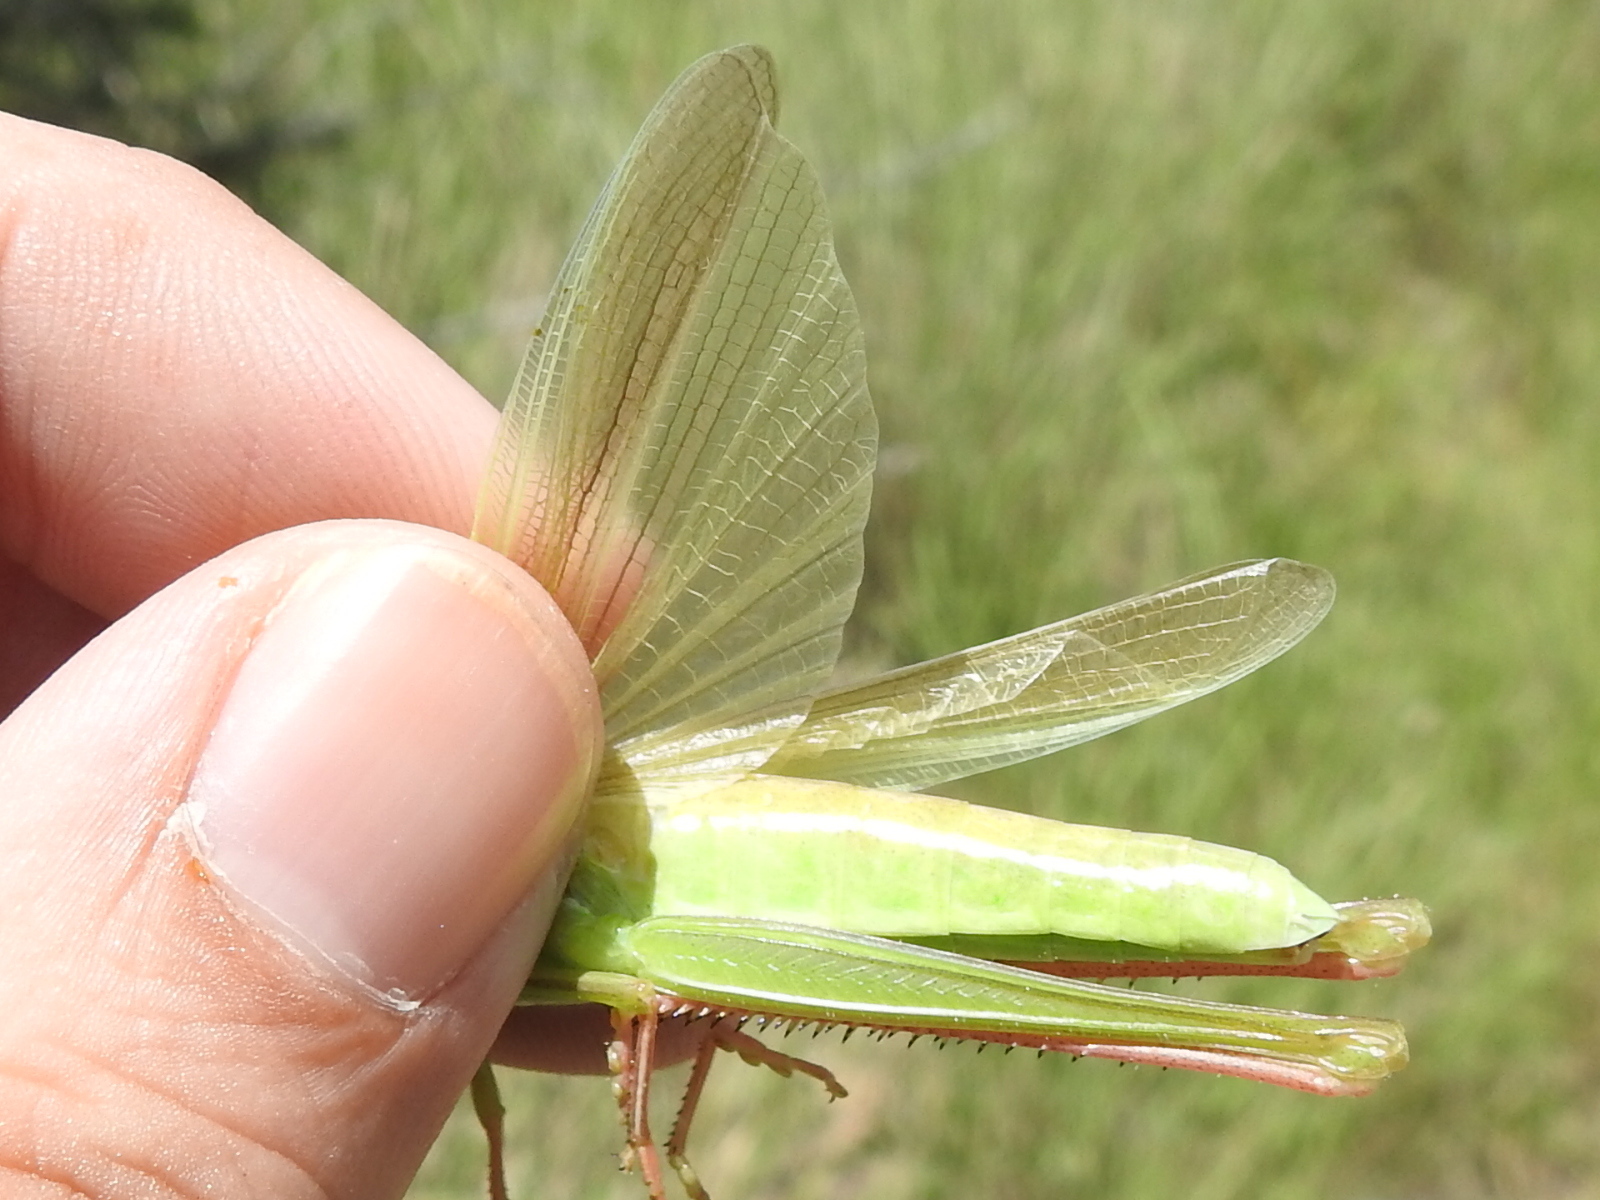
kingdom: Animalia
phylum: Arthropoda
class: Insecta
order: Orthoptera
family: Acrididae
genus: Mermiria
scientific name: Mermiria picta
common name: Lively mermiria grasshopper
